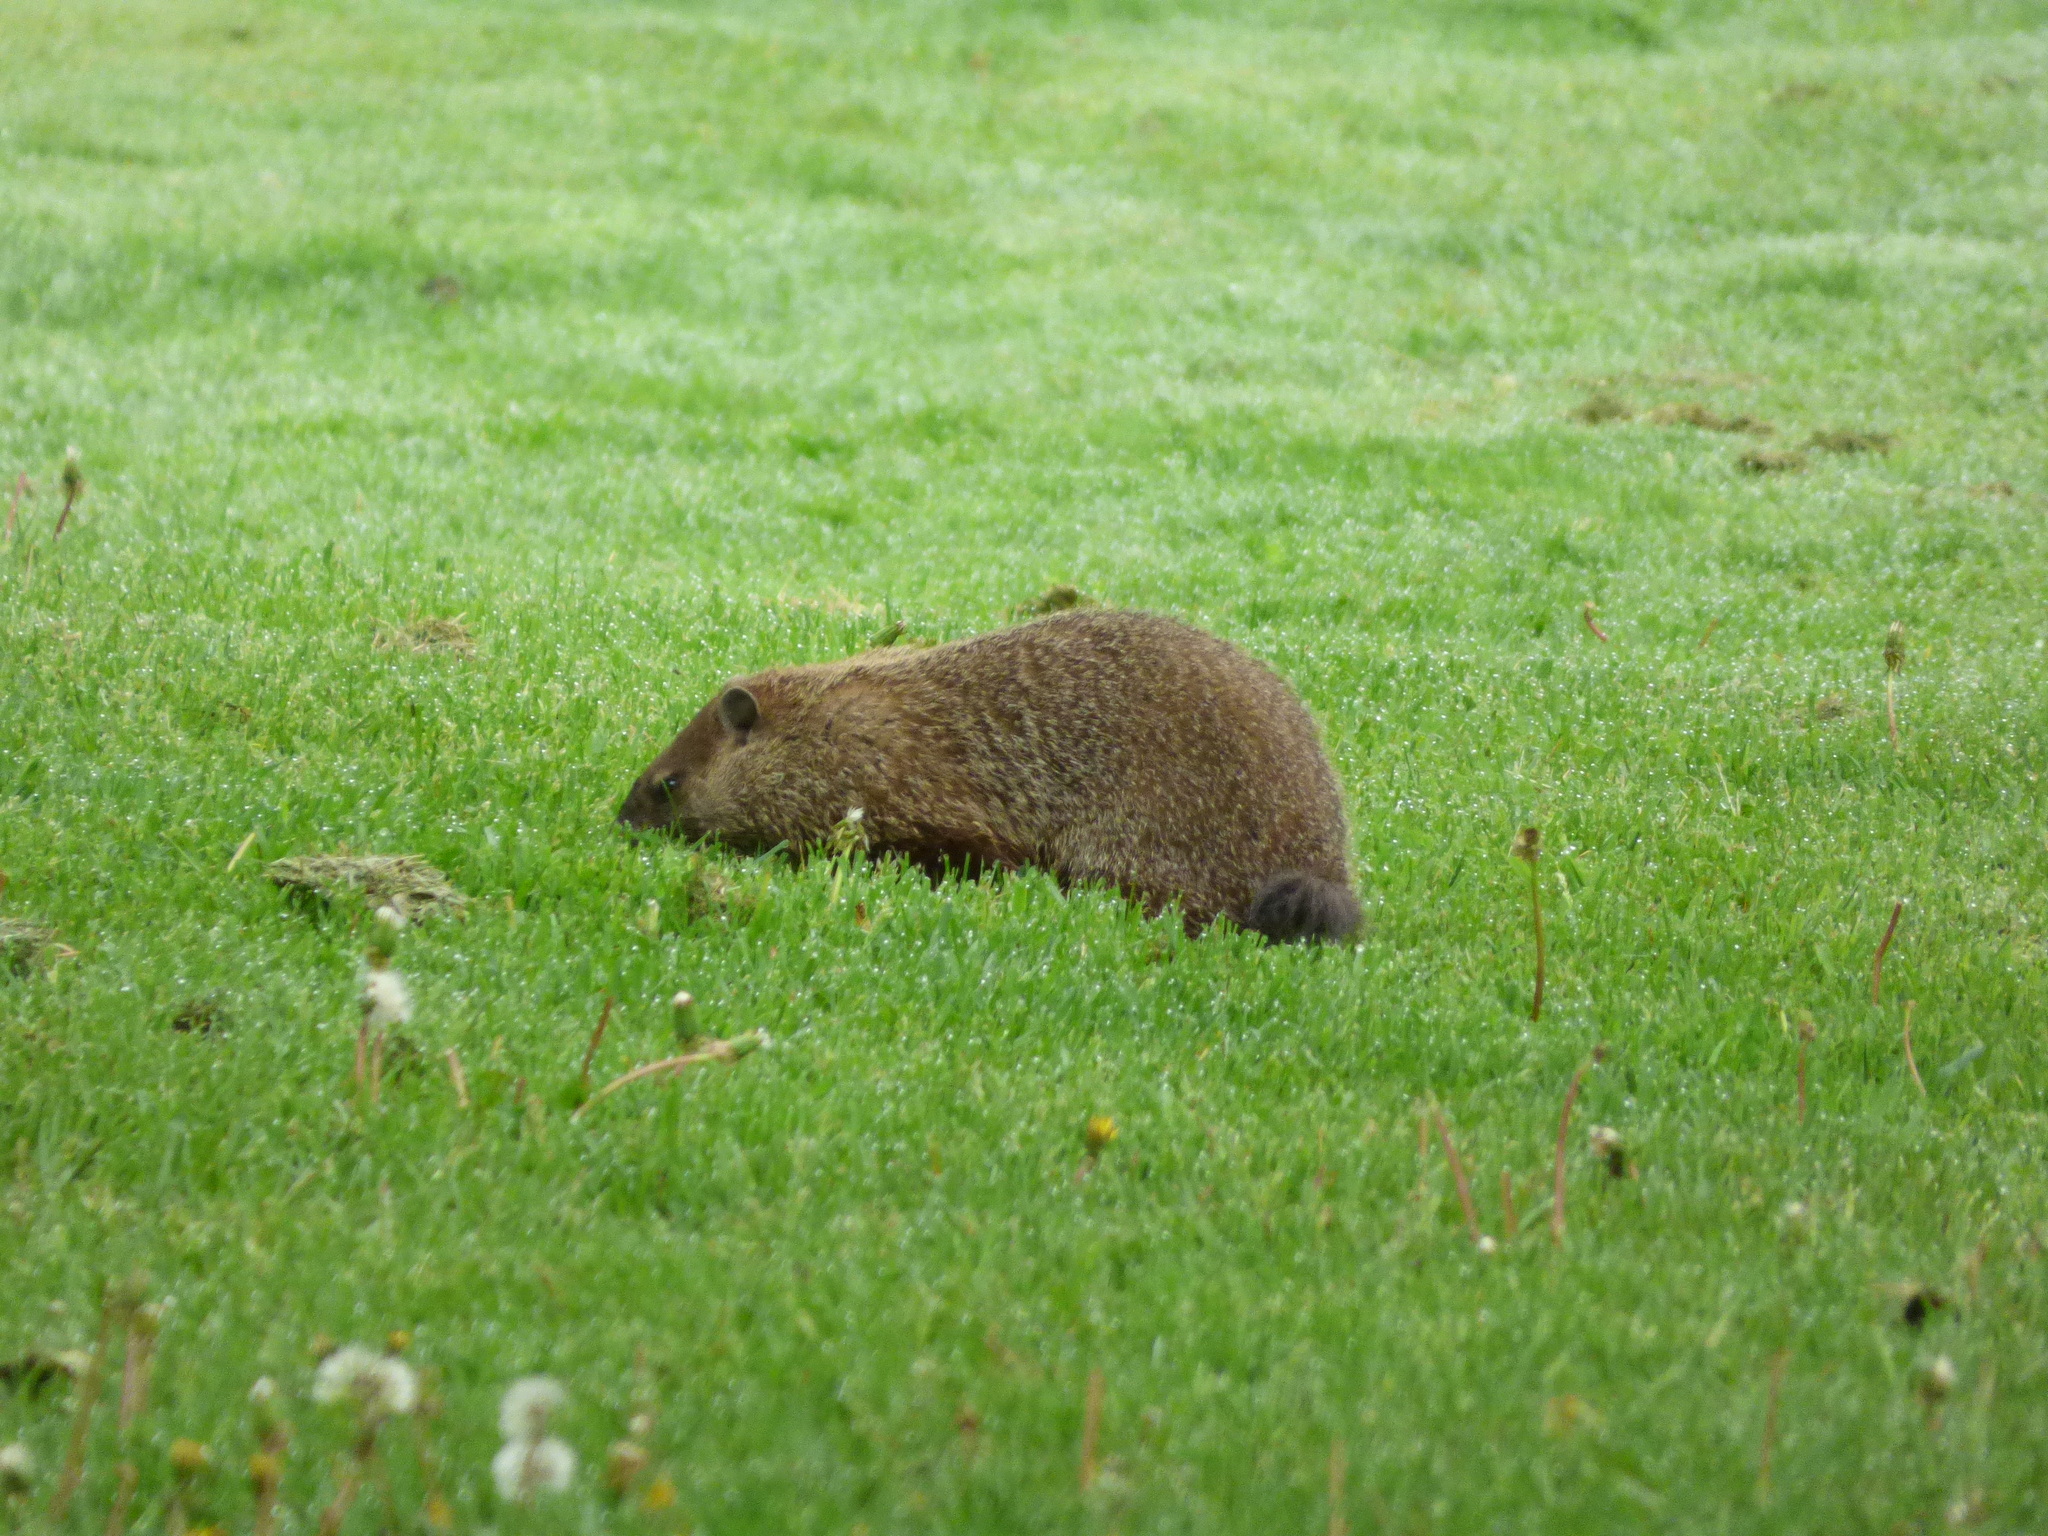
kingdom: Animalia
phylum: Chordata
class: Mammalia
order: Rodentia
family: Sciuridae
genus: Marmota
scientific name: Marmota monax
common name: Groundhog
